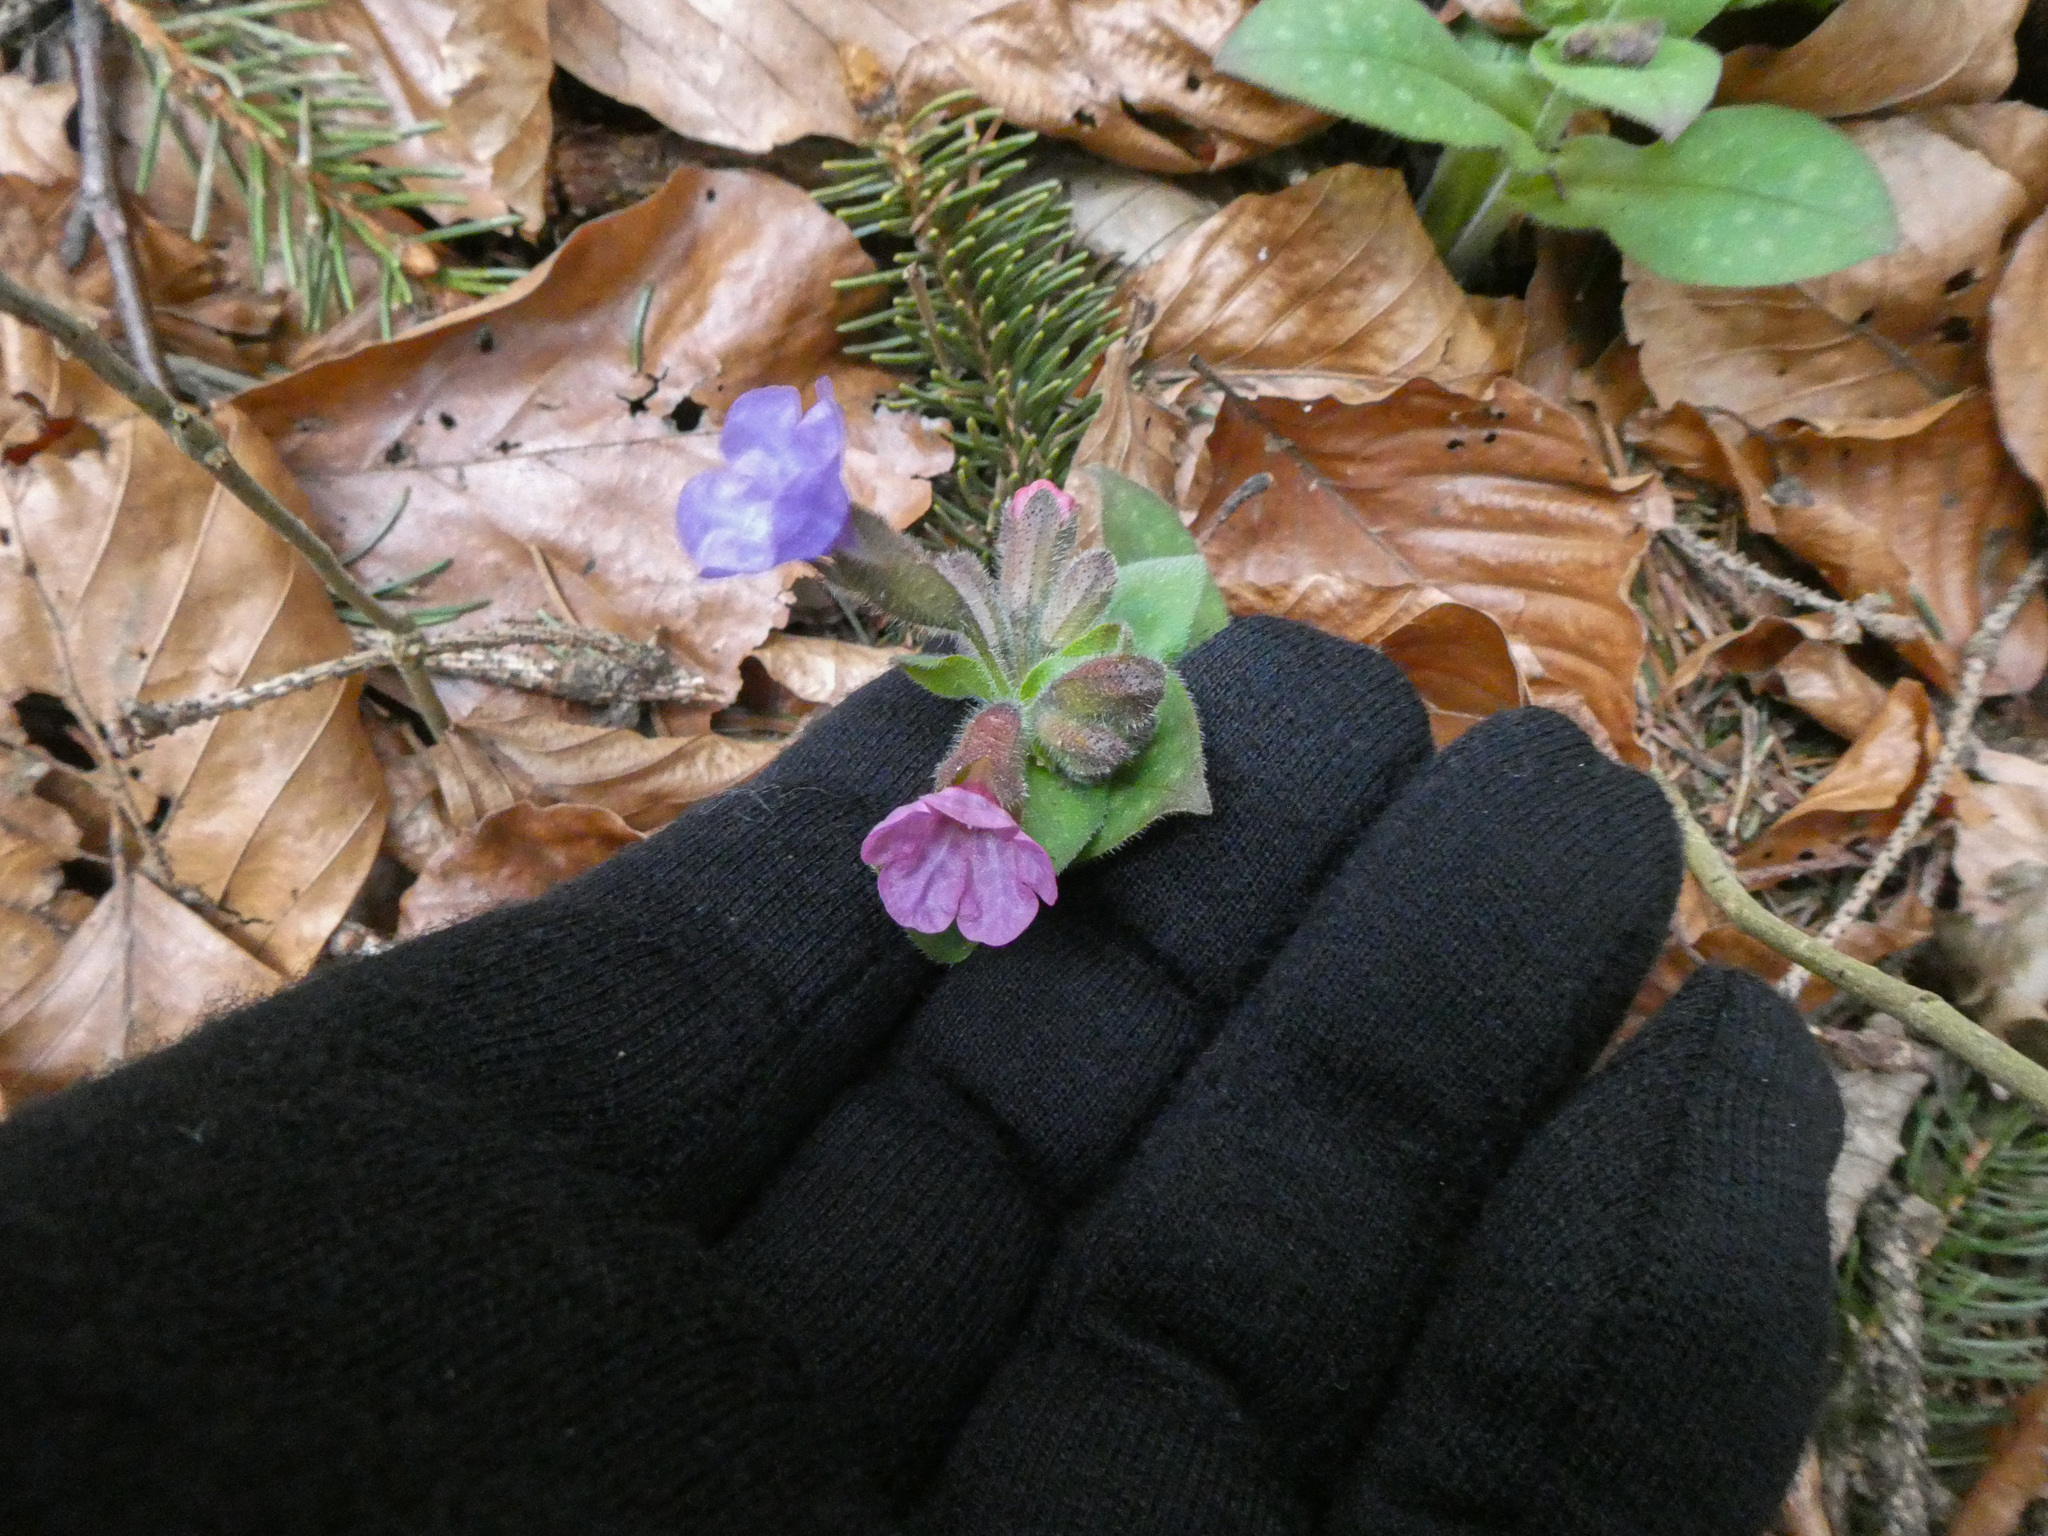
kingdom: Plantae
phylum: Tracheophyta
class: Magnoliopsida
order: Boraginales
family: Boraginaceae
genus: Pulmonaria
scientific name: Pulmonaria officinalis
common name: Lungwort
